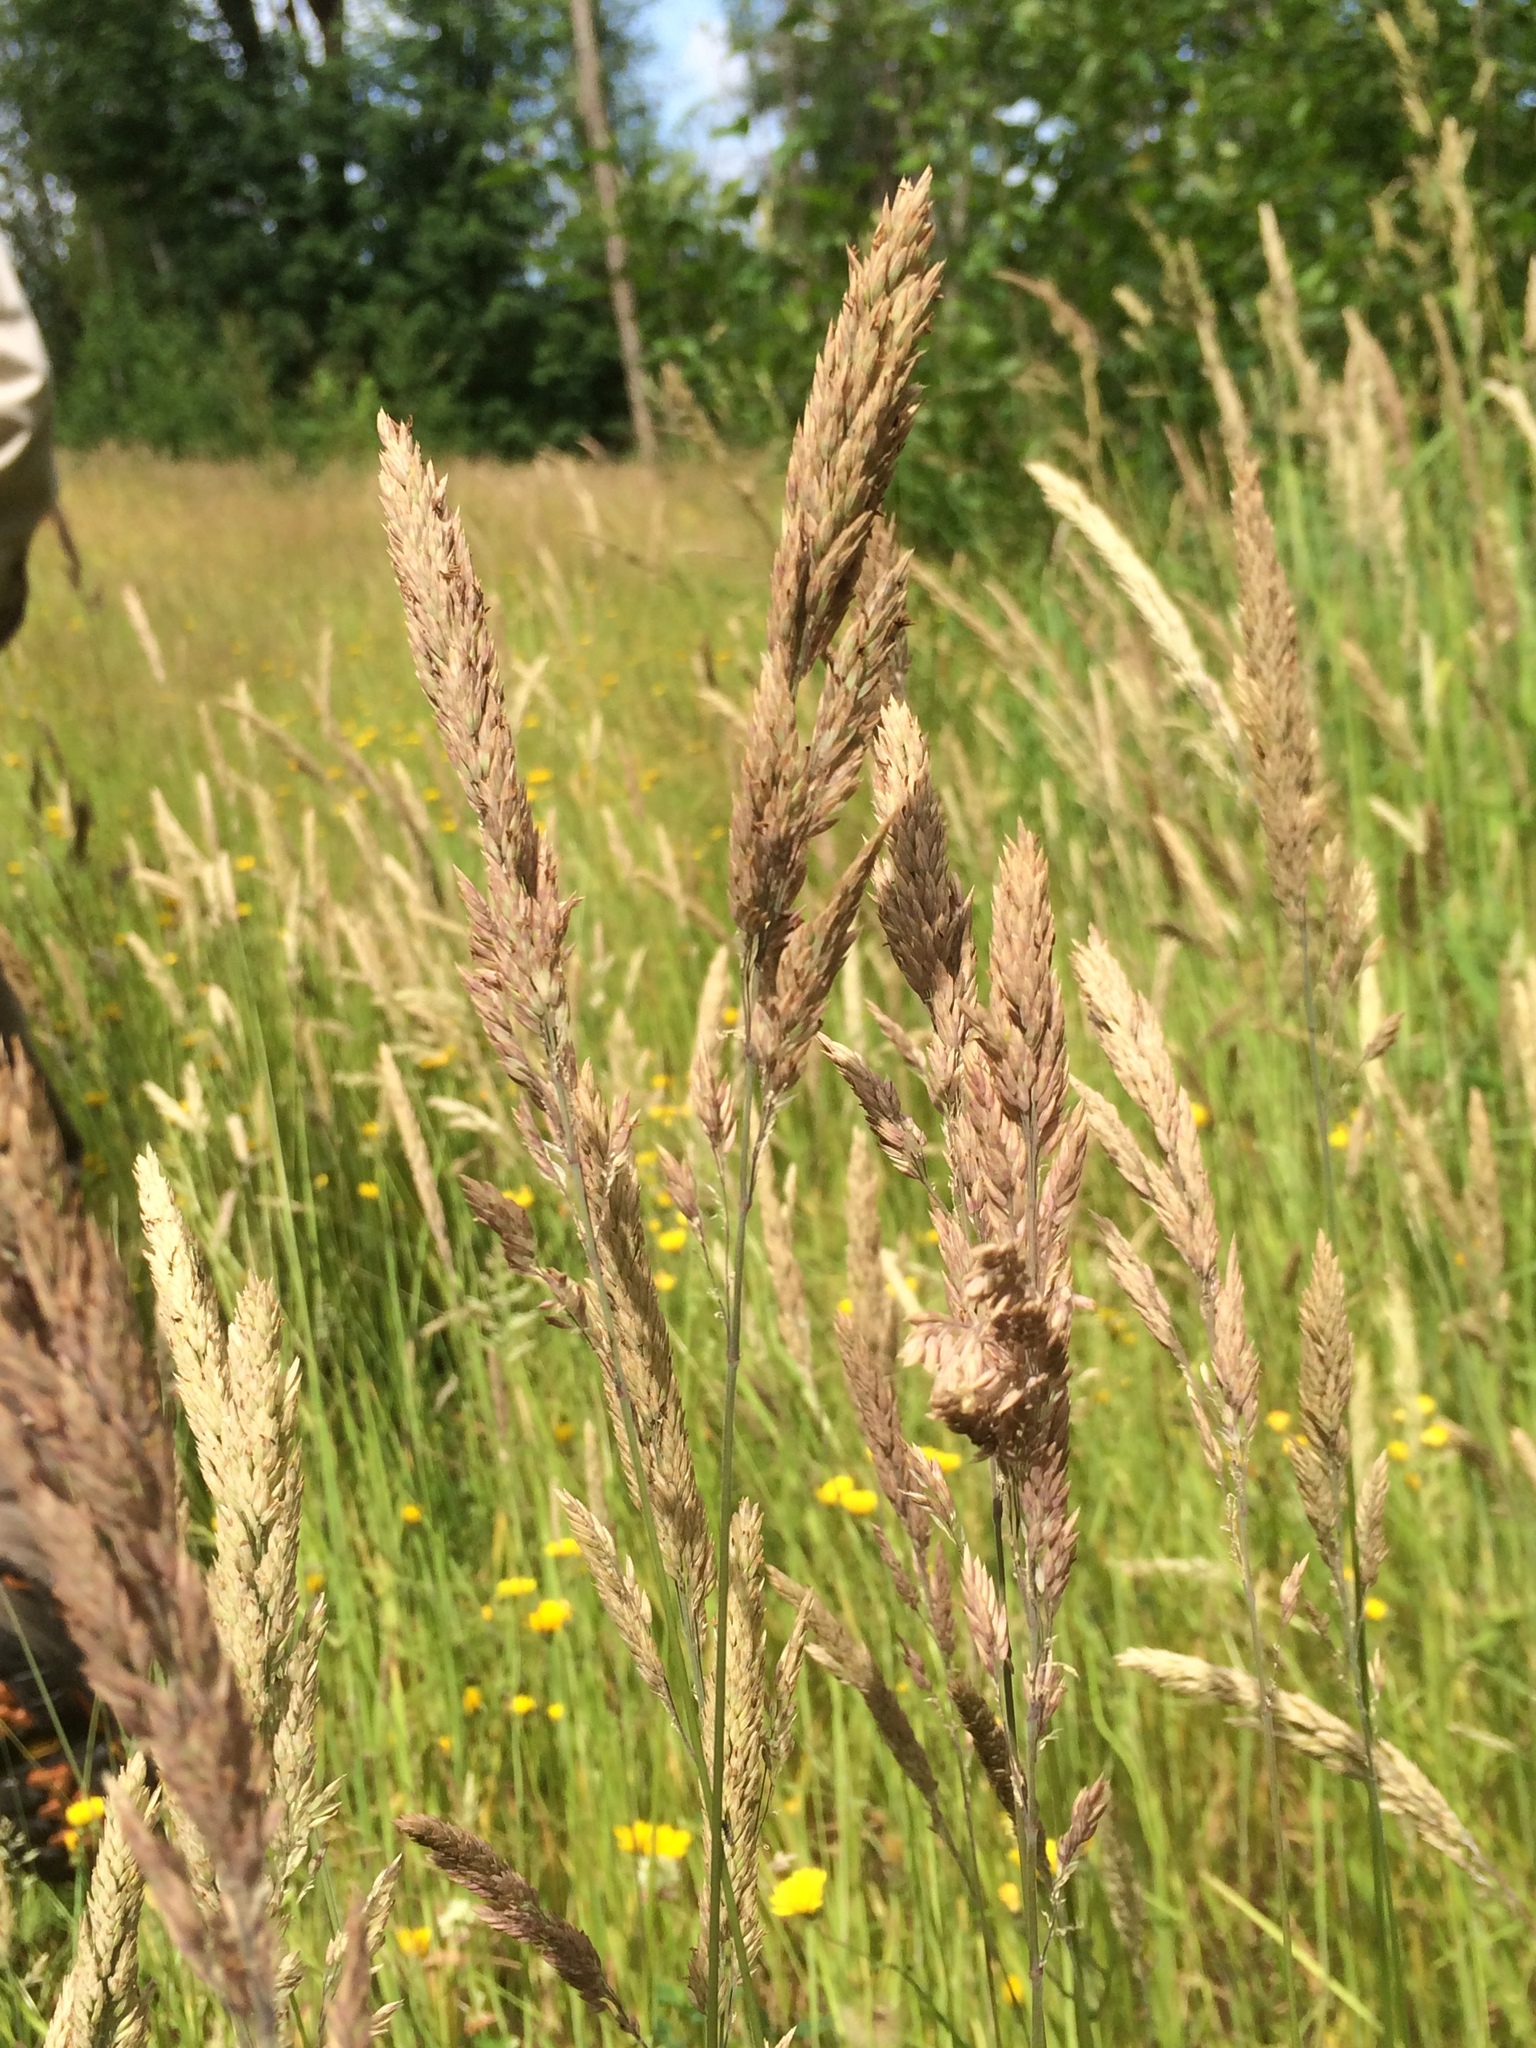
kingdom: Plantae
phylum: Tracheophyta
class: Liliopsida
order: Poales
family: Poaceae
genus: Holcus
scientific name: Holcus lanatus
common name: Yorkshire-fog
